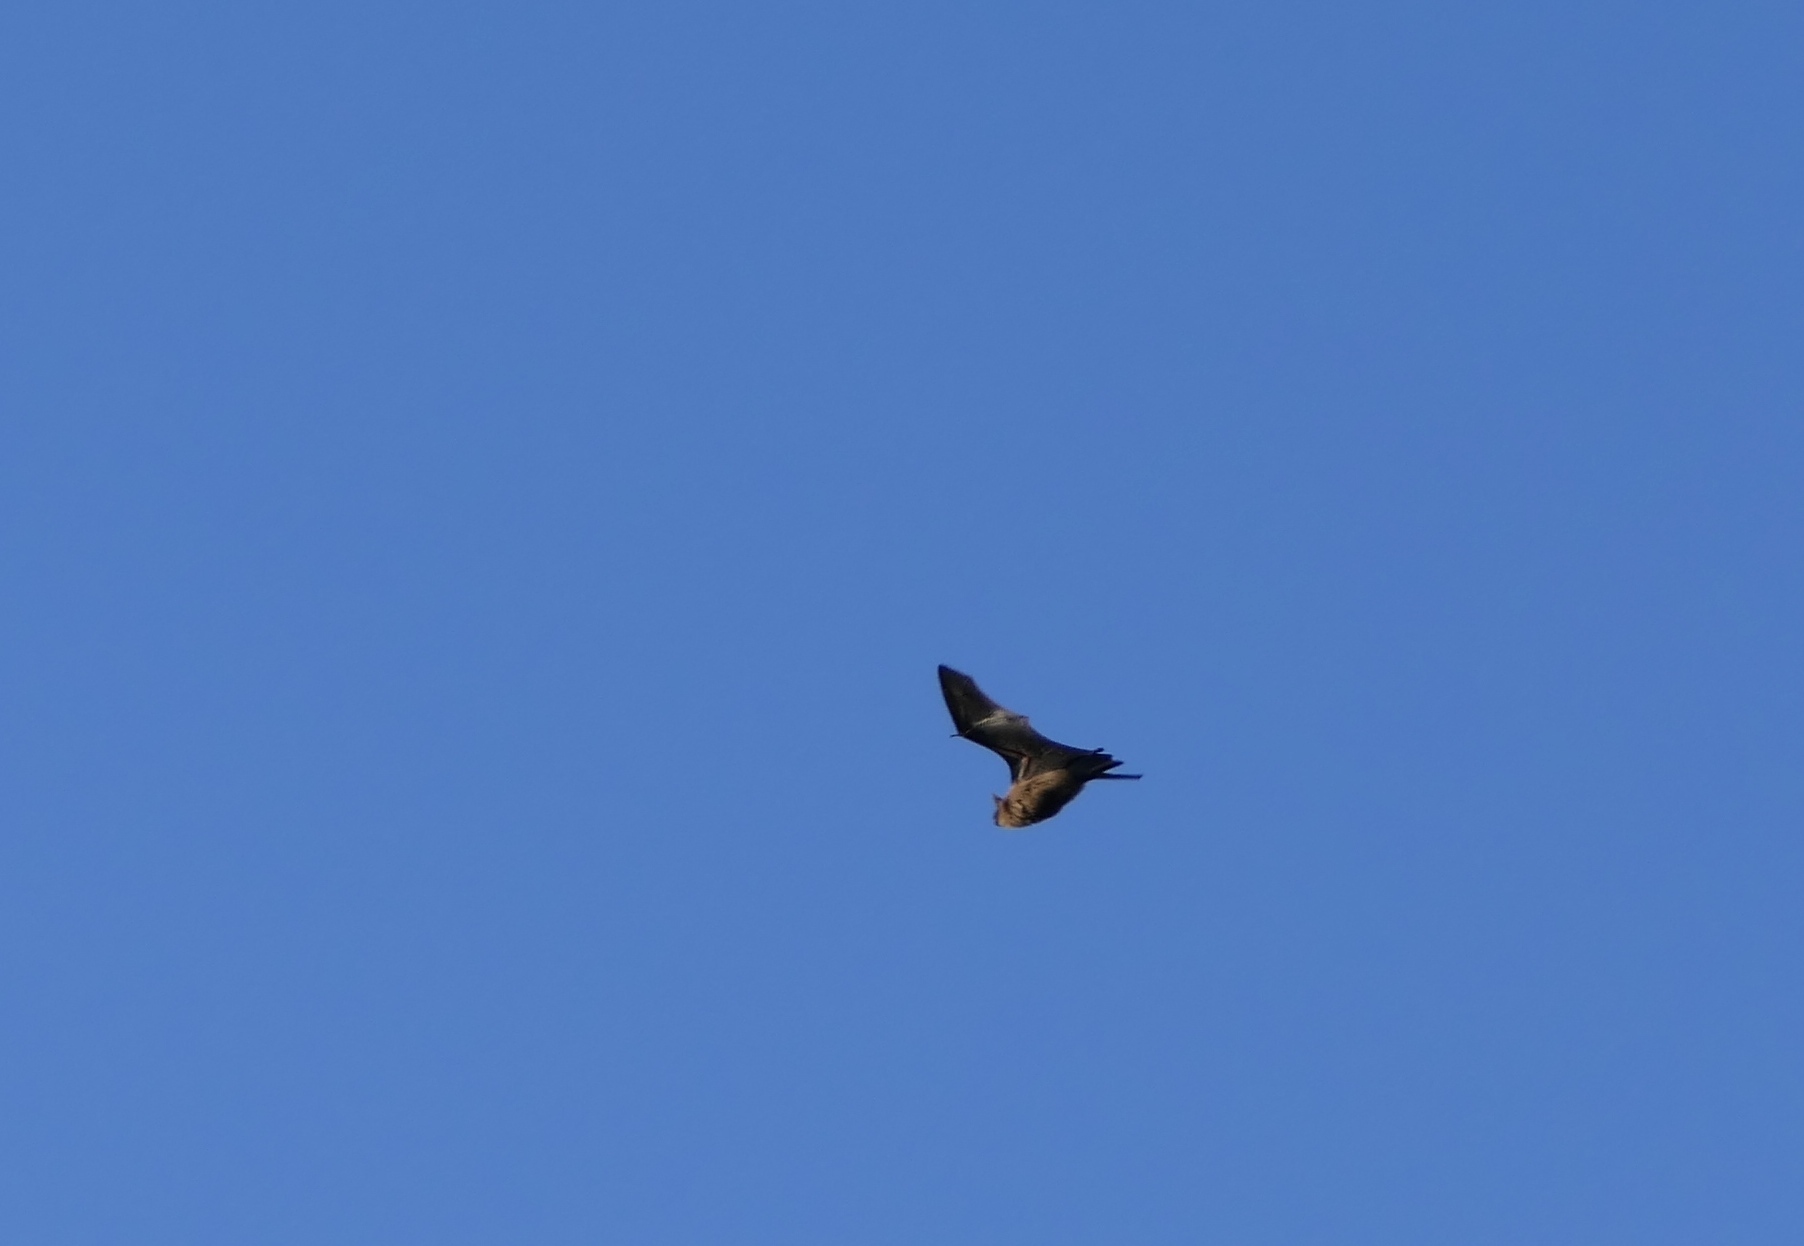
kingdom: Animalia
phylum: Chordata
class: Mammalia
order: Chiroptera
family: Vespertilionidae
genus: Eptesicus
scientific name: Eptesicus fuscus
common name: Big brown bat
